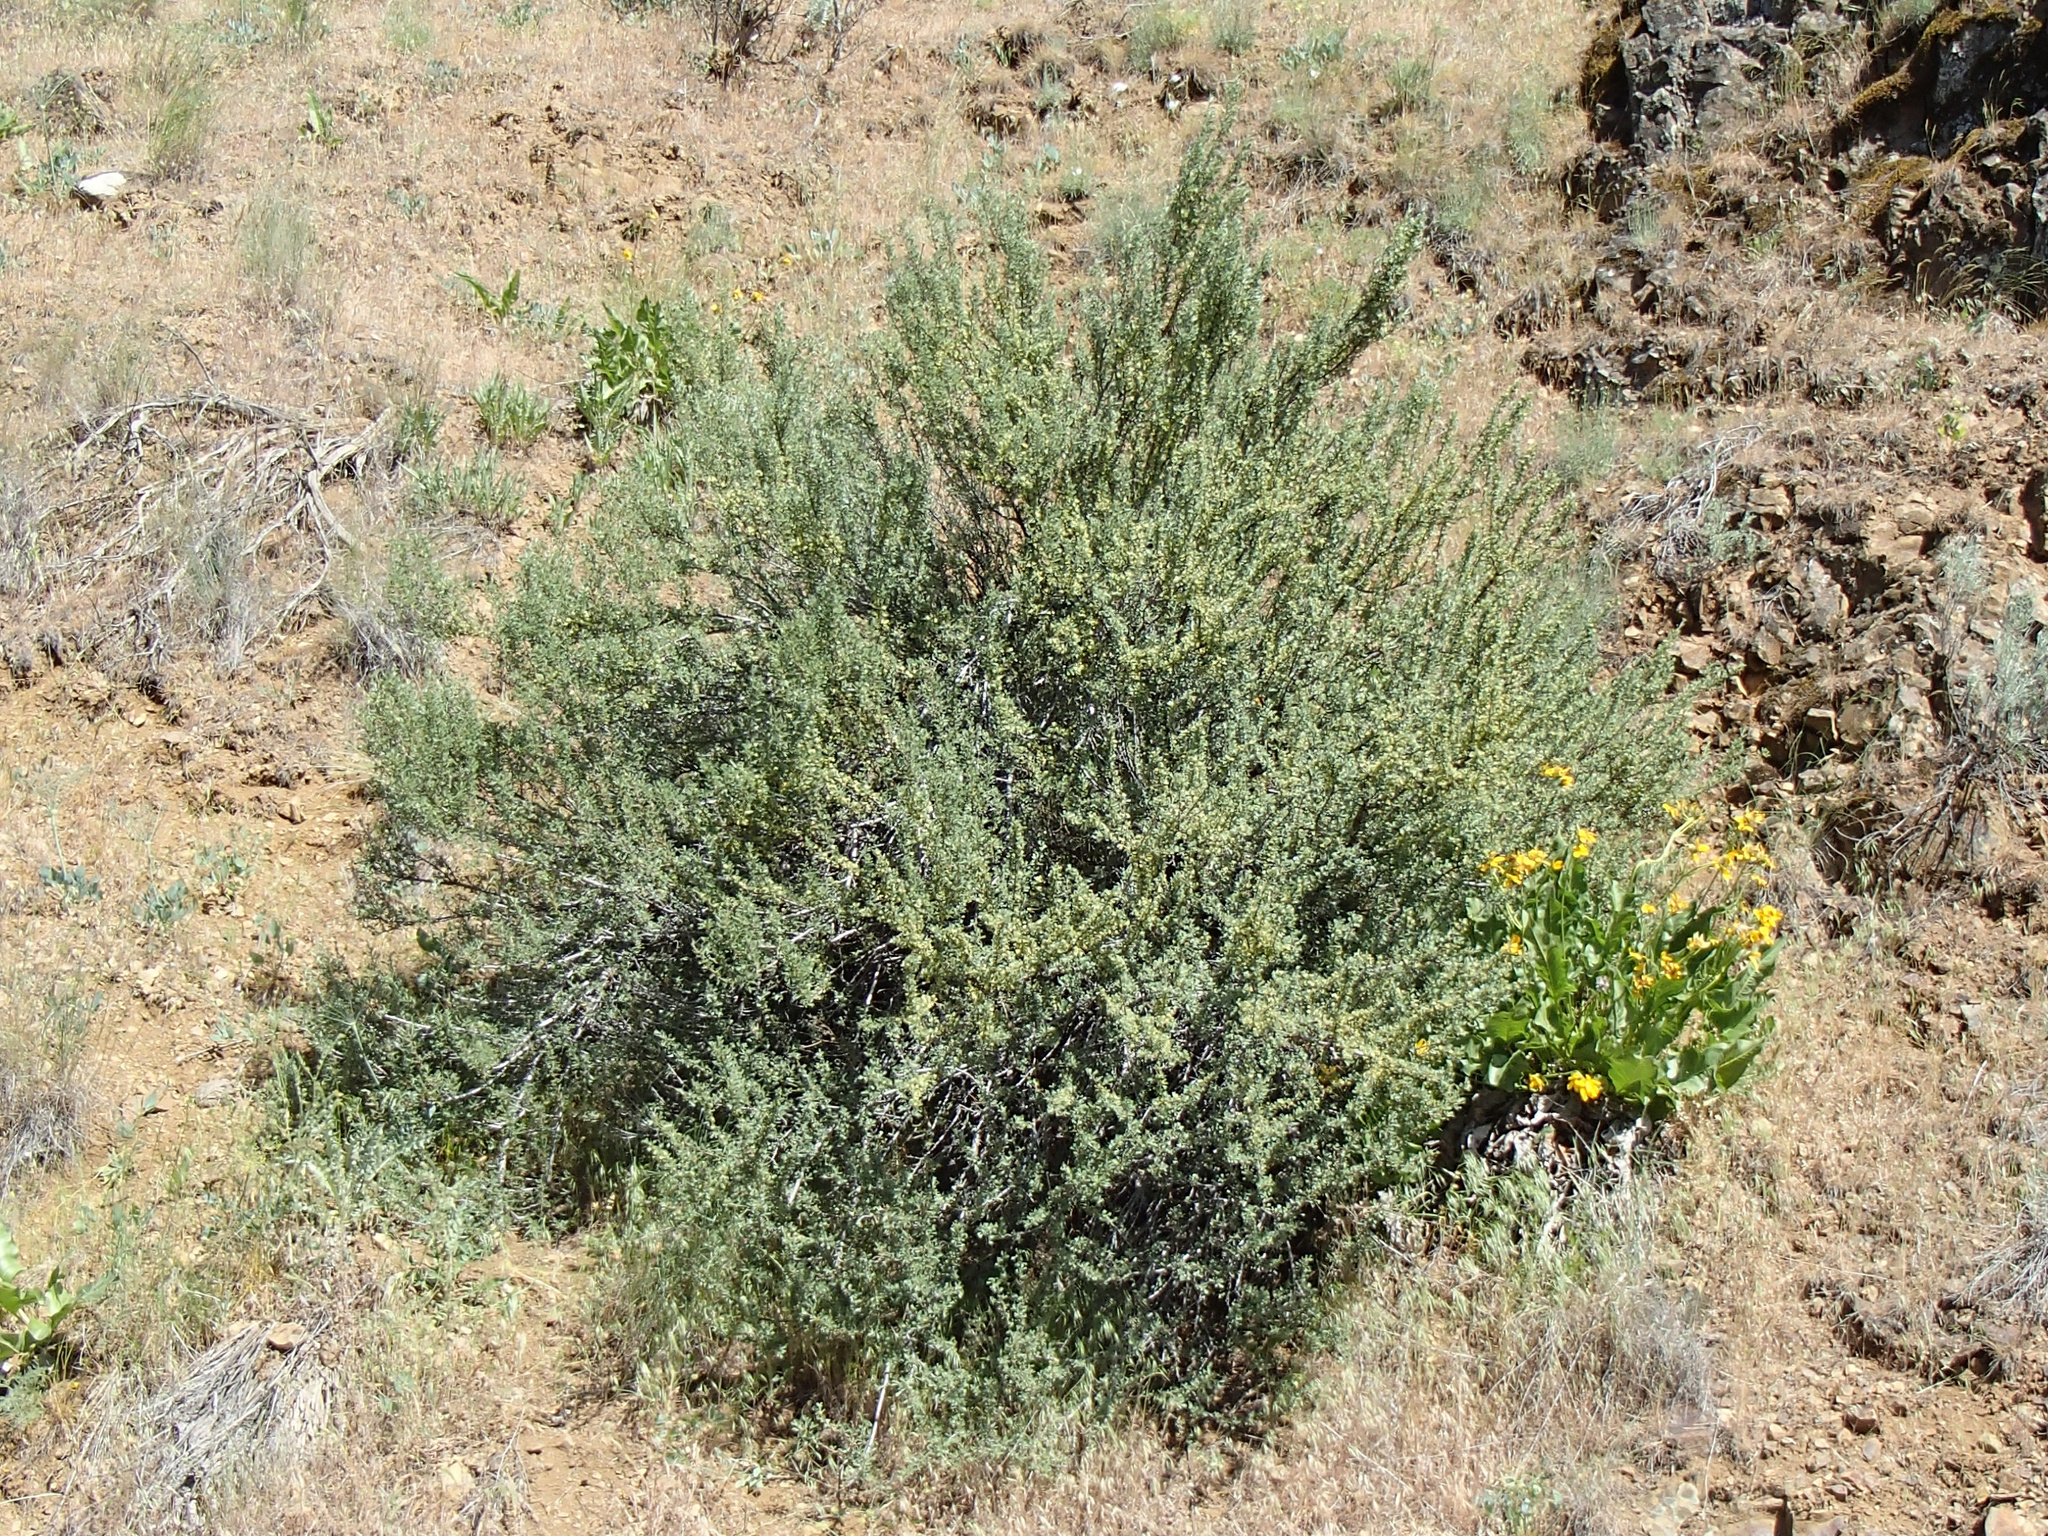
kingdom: Plantae
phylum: Tracheophyta
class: Magnoliopsida
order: Rosales
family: Rosaceae
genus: Purshia
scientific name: Purshia tridentata
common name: Antelope bitterbrush
